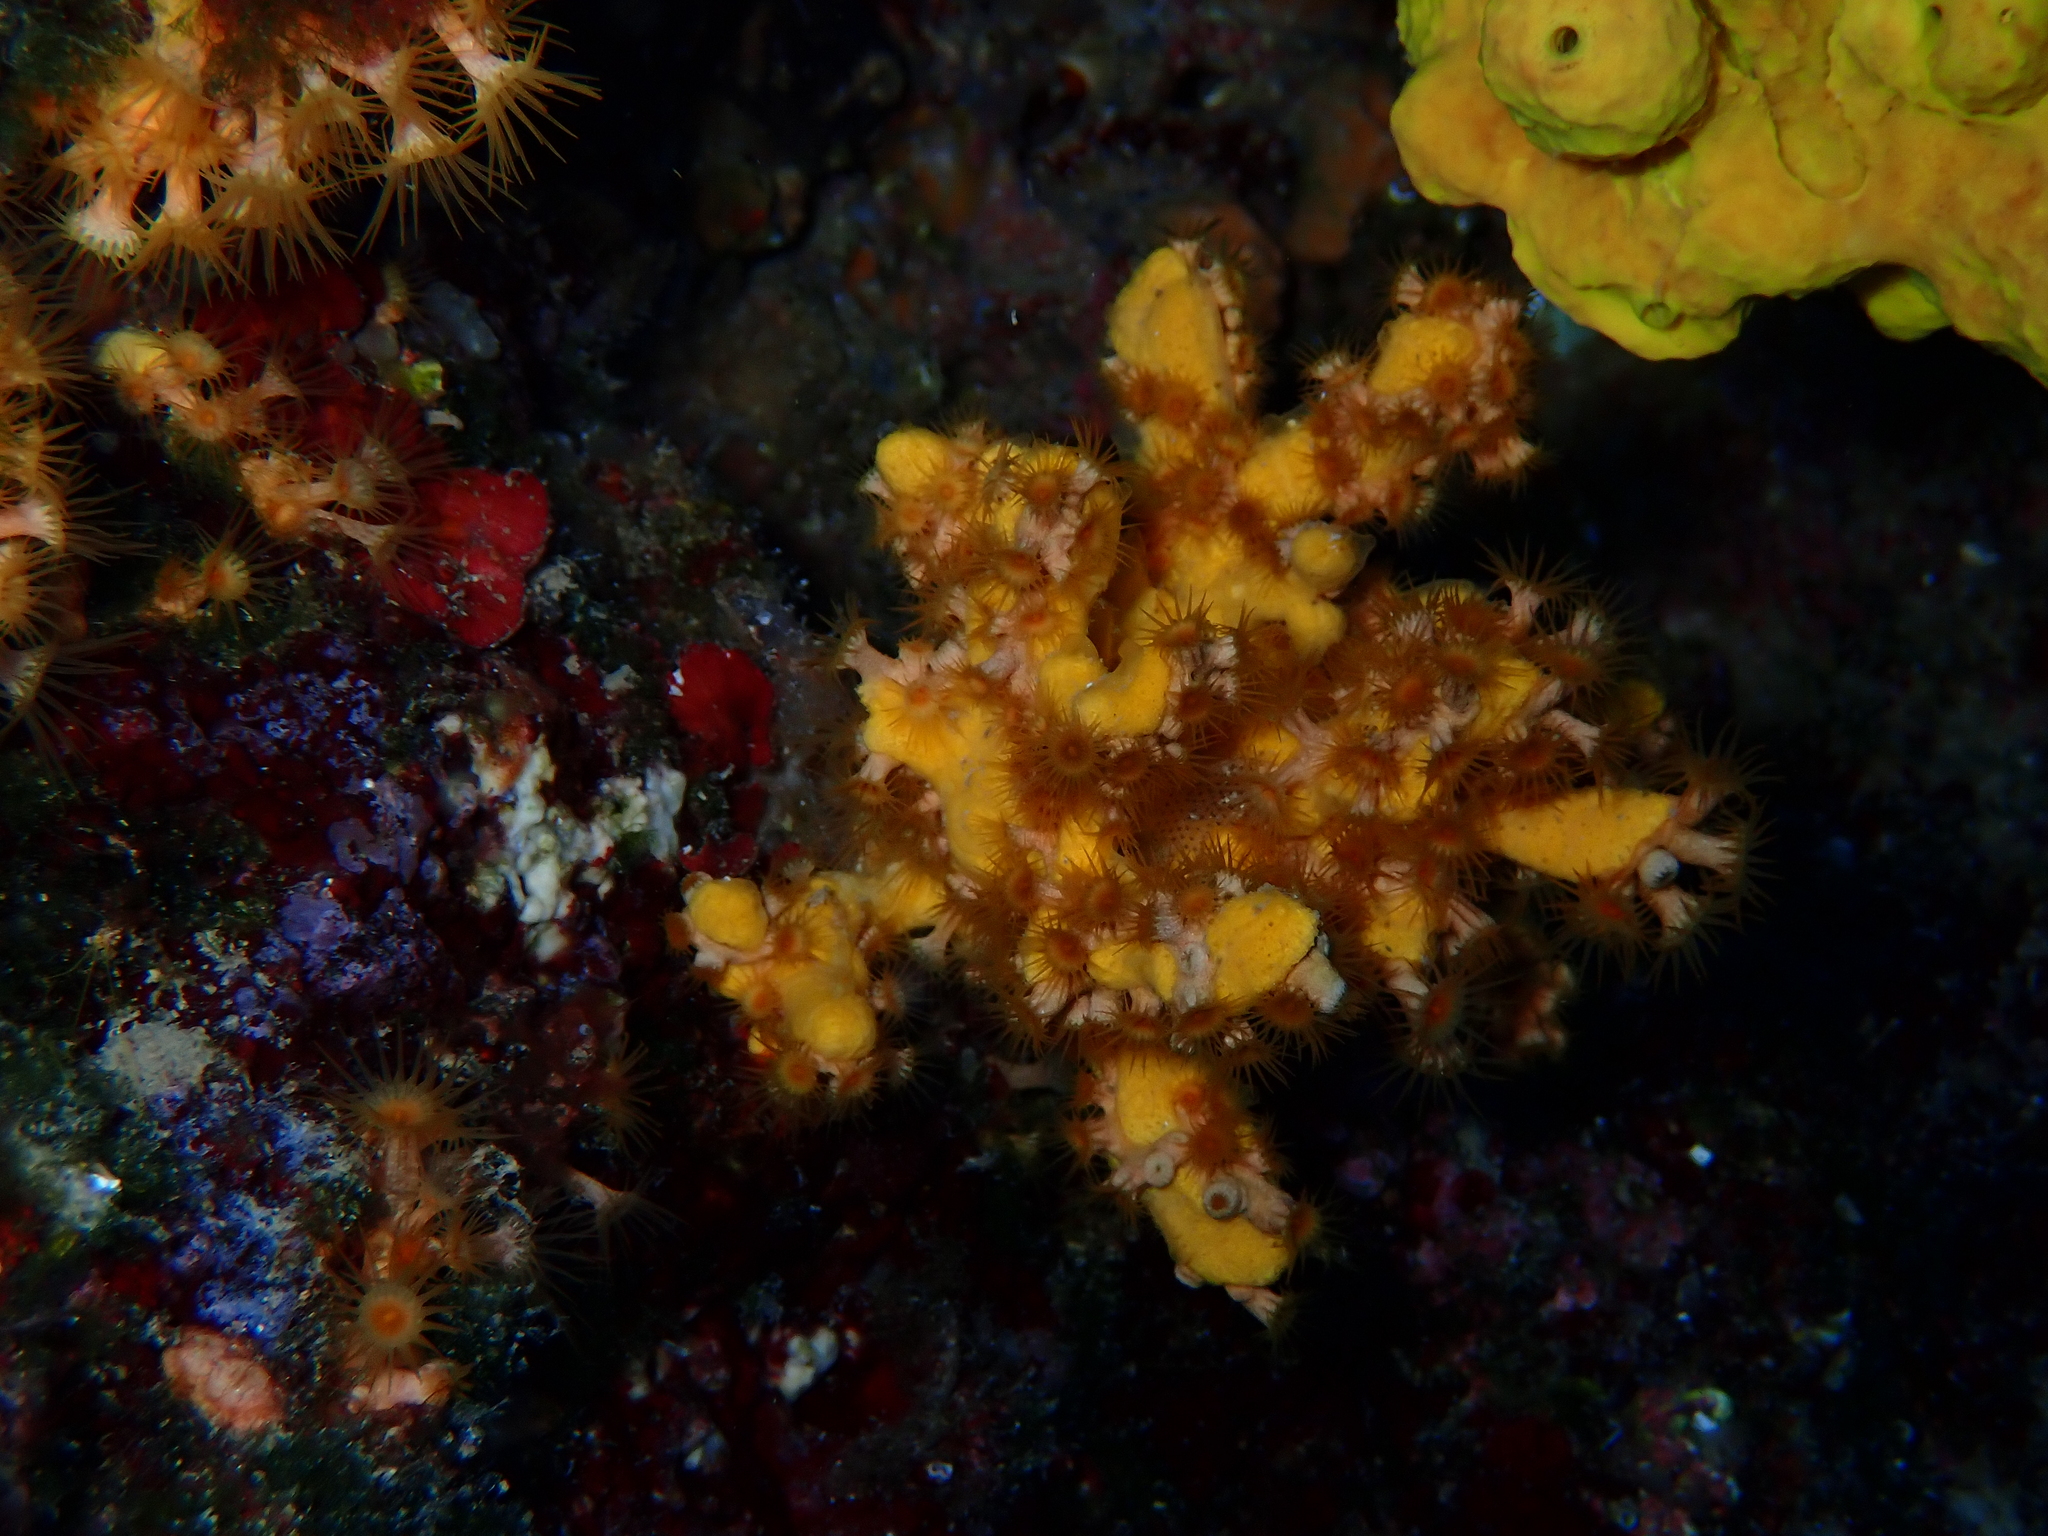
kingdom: Animalia
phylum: Cnidaria
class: Anthozoa
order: Zoantharia
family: Parazoanthidae
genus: Parazoanthus
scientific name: Parazoanthus axinellae
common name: Yellow cluster anemone
